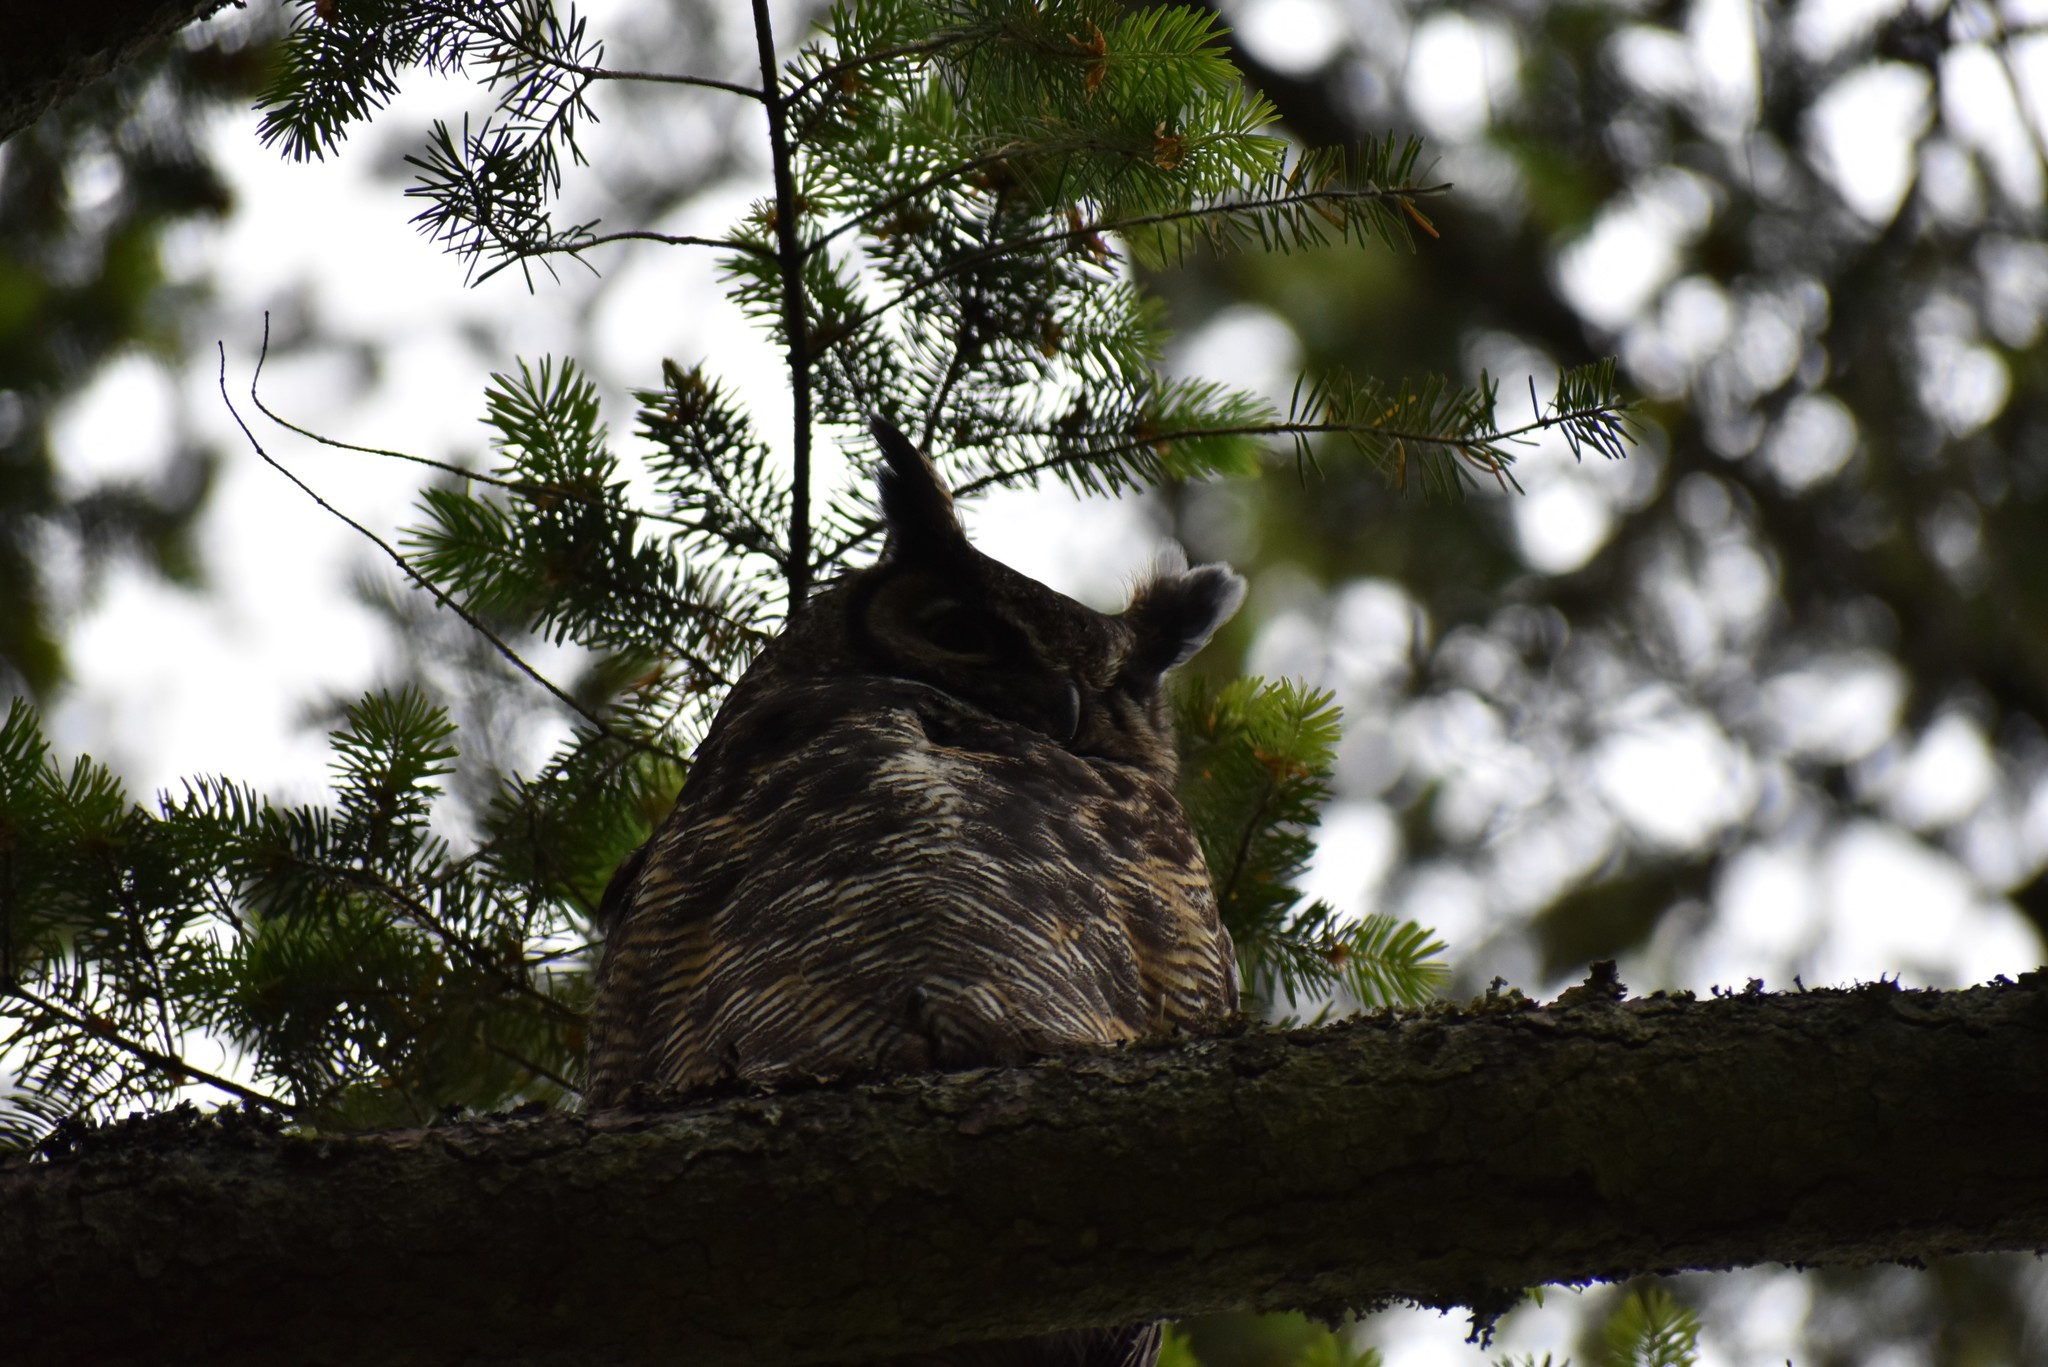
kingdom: Animalia
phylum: Chordata
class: Aves
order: Strigiformes
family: Strigidae
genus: Bubo
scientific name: Bubo virginianus
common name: Great horned owl
